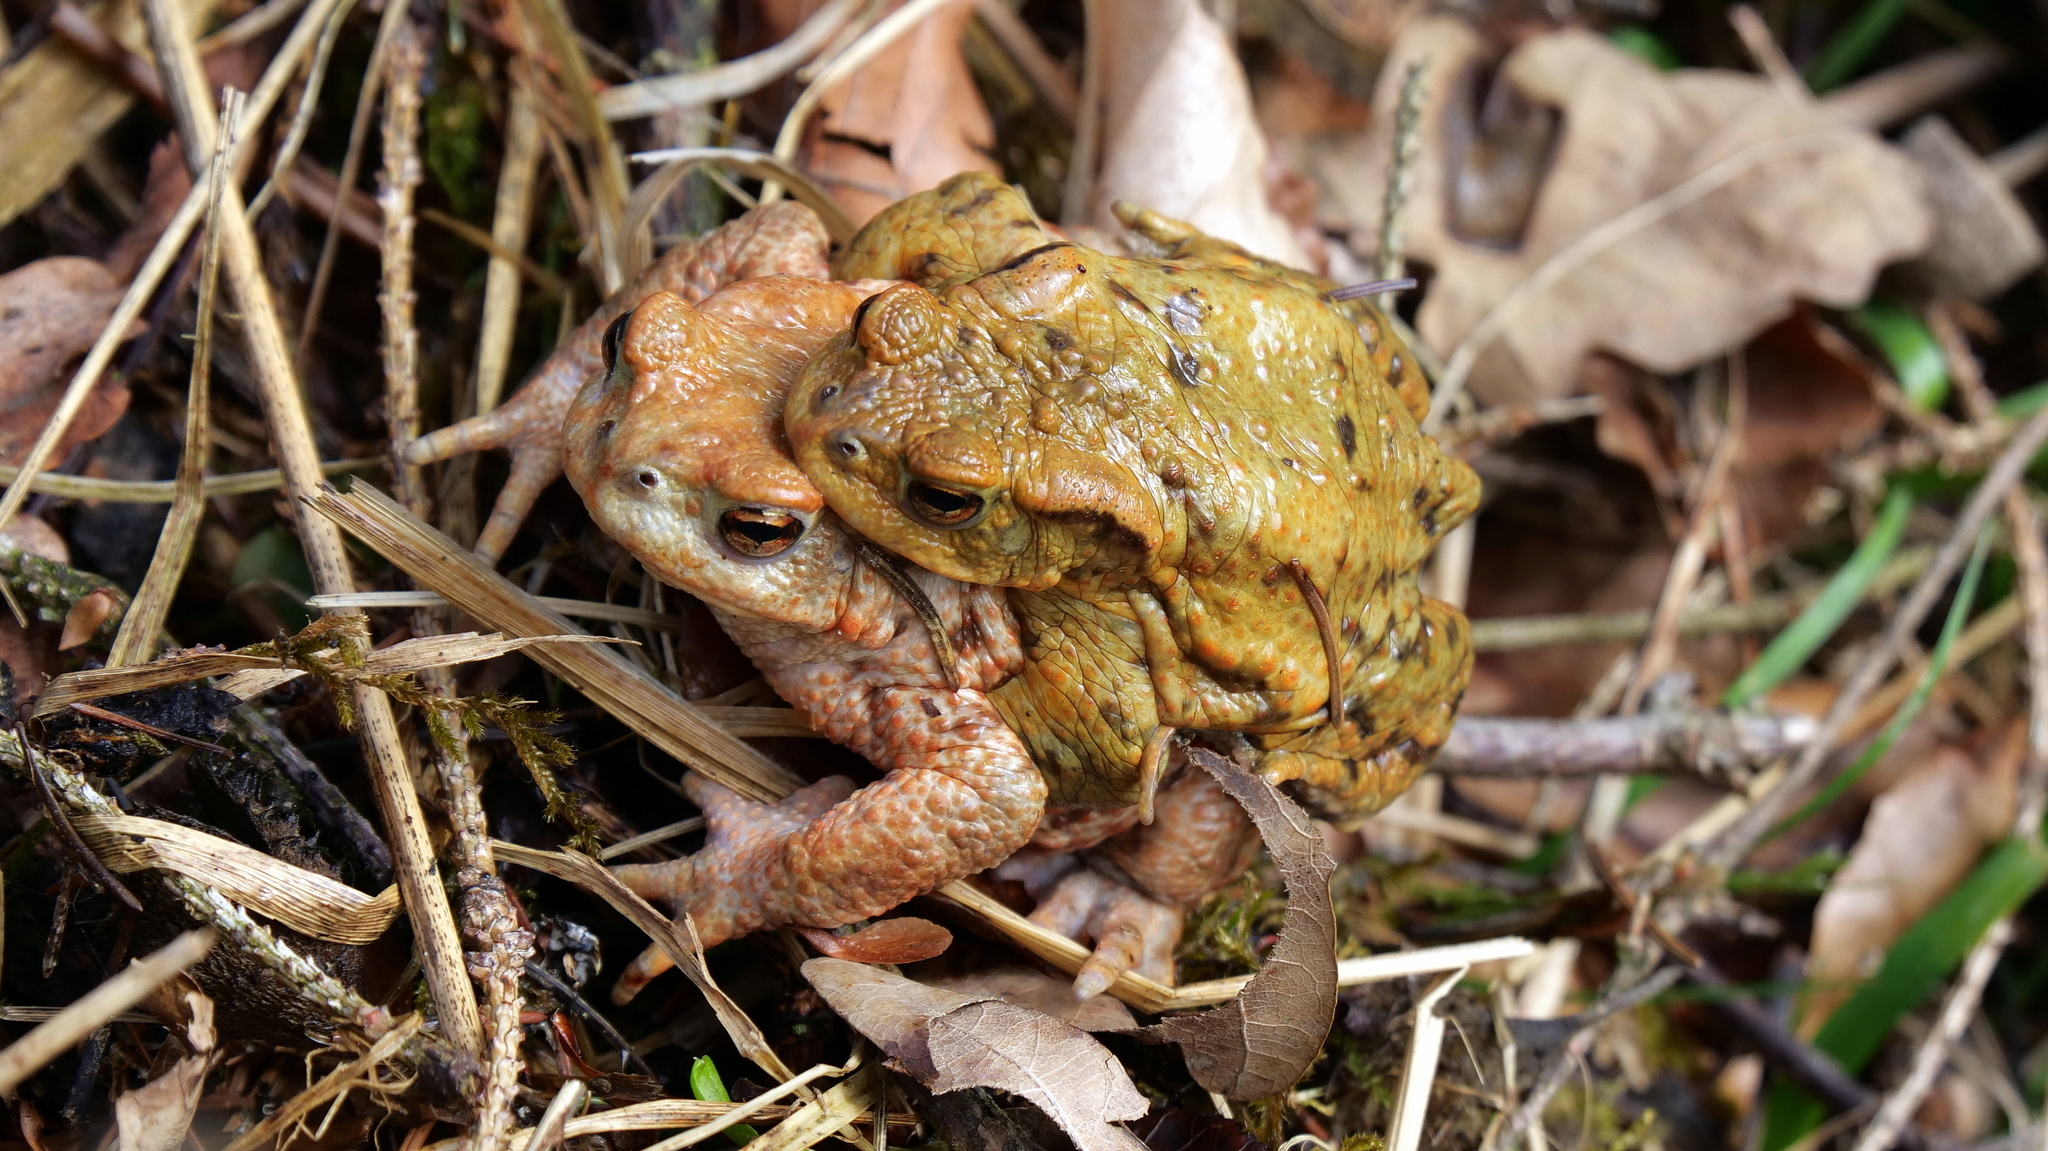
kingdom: Animalia
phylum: Chordata
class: Amphibia
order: Anura
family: Bufonidae
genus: Bufo
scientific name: Bufo bufo
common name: Common toad
